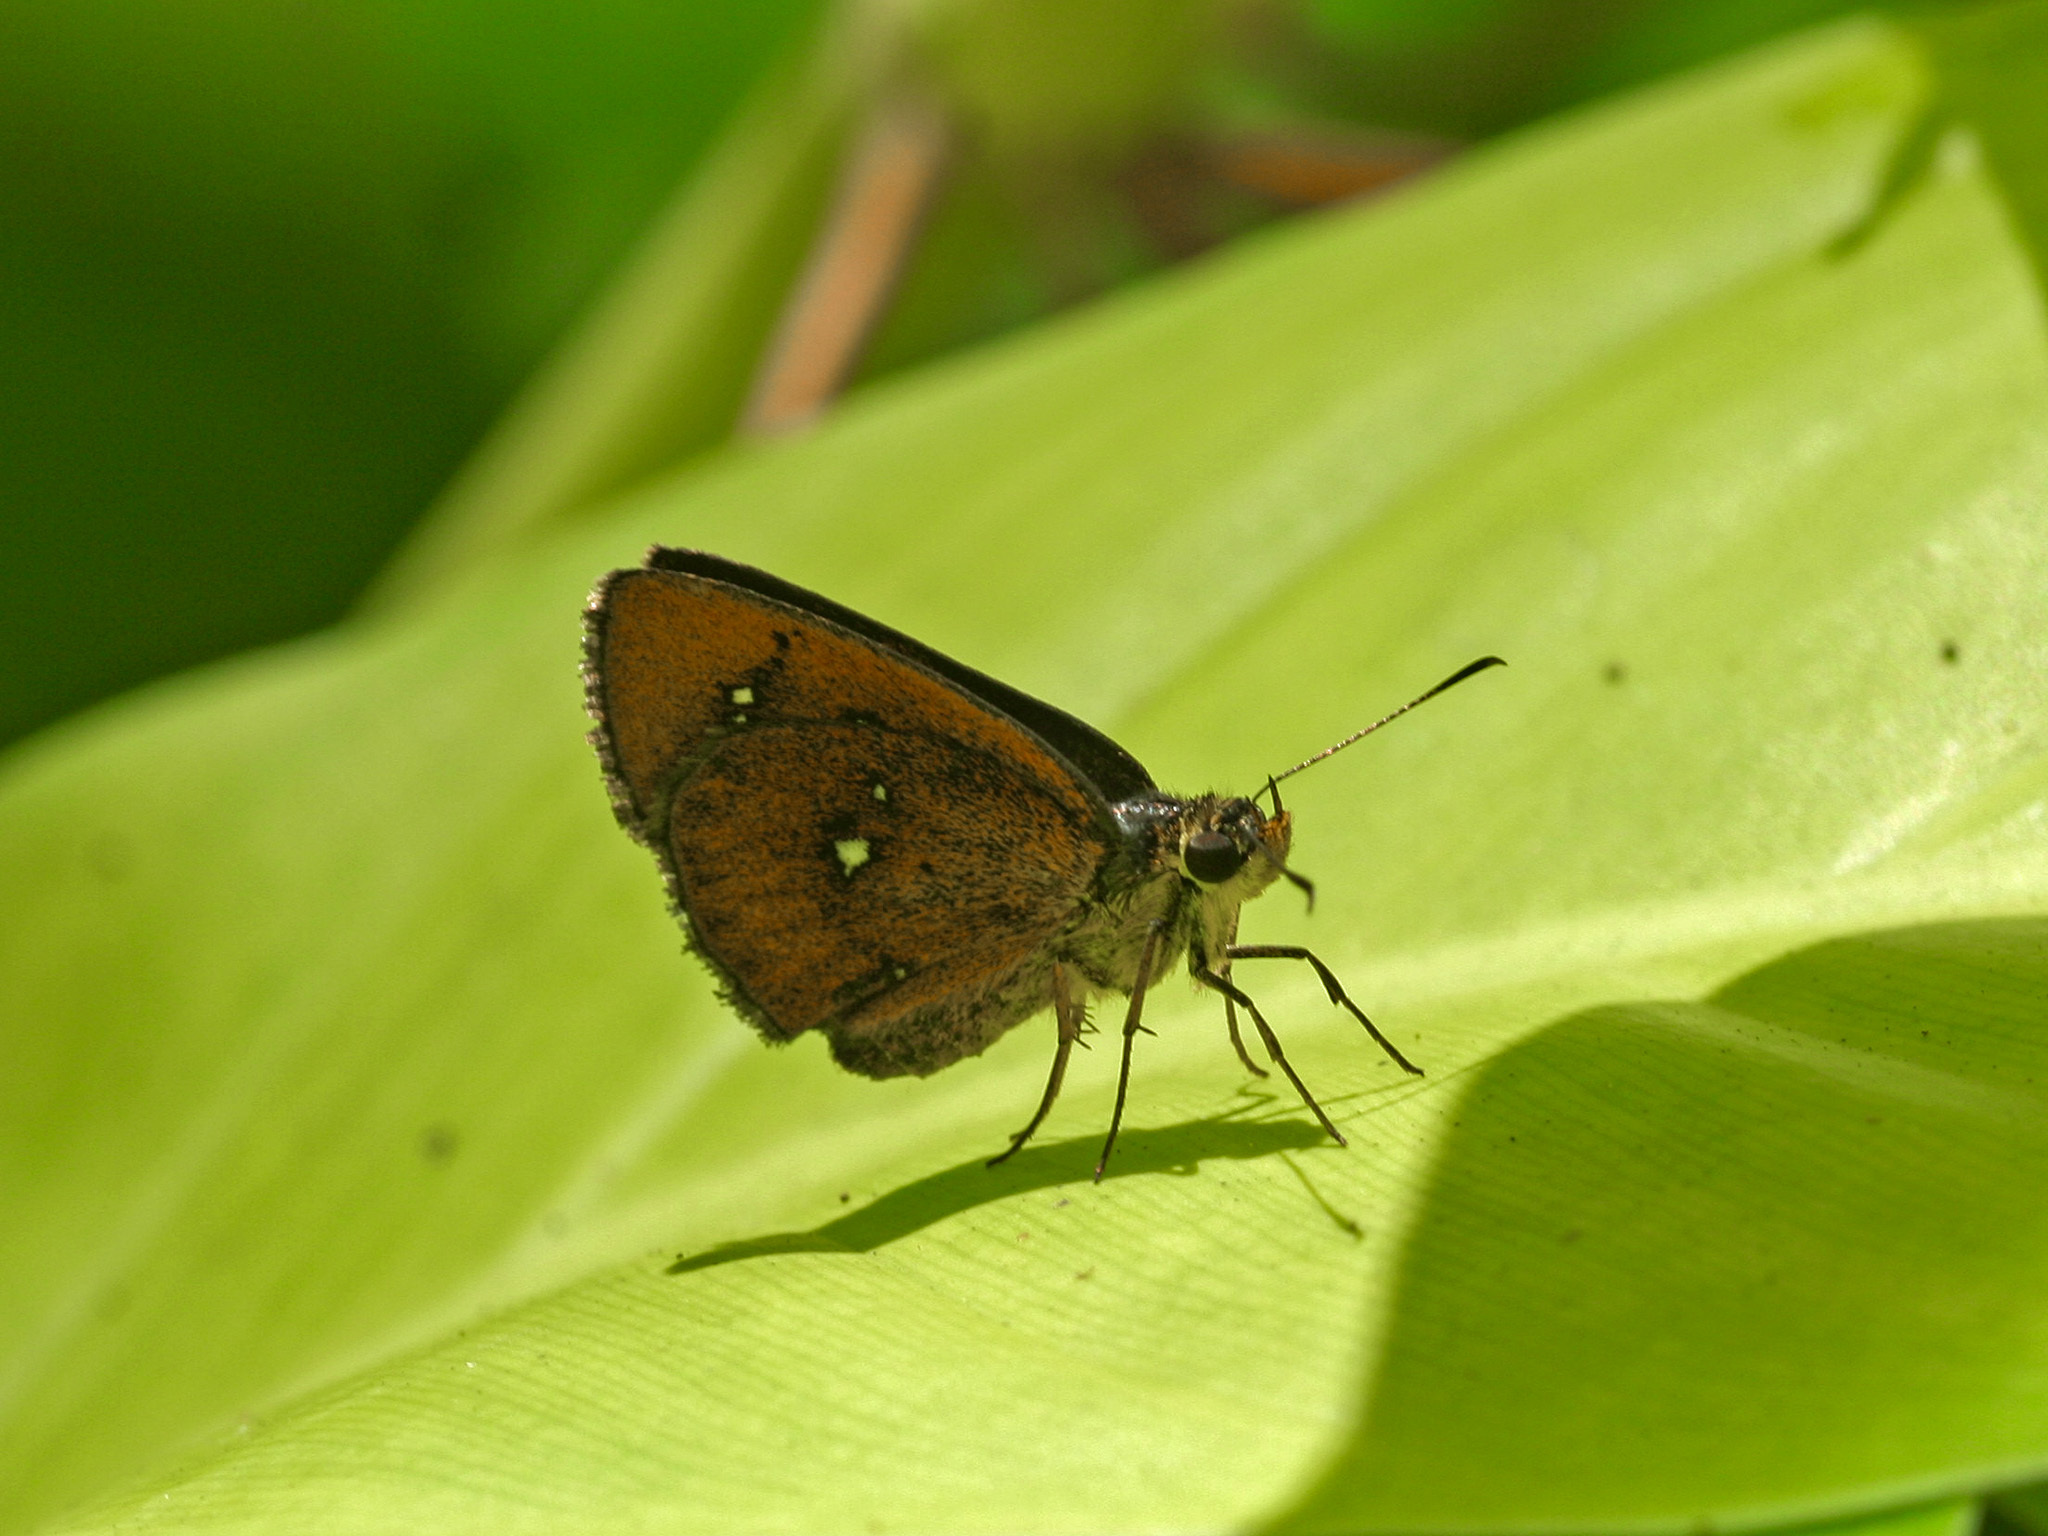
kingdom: Animalia
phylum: Arthropoda
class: Insecta
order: Lepidoptera
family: Hesperiidae
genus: Iambrix
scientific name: Iambrix salsala
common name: Chestnut bob
